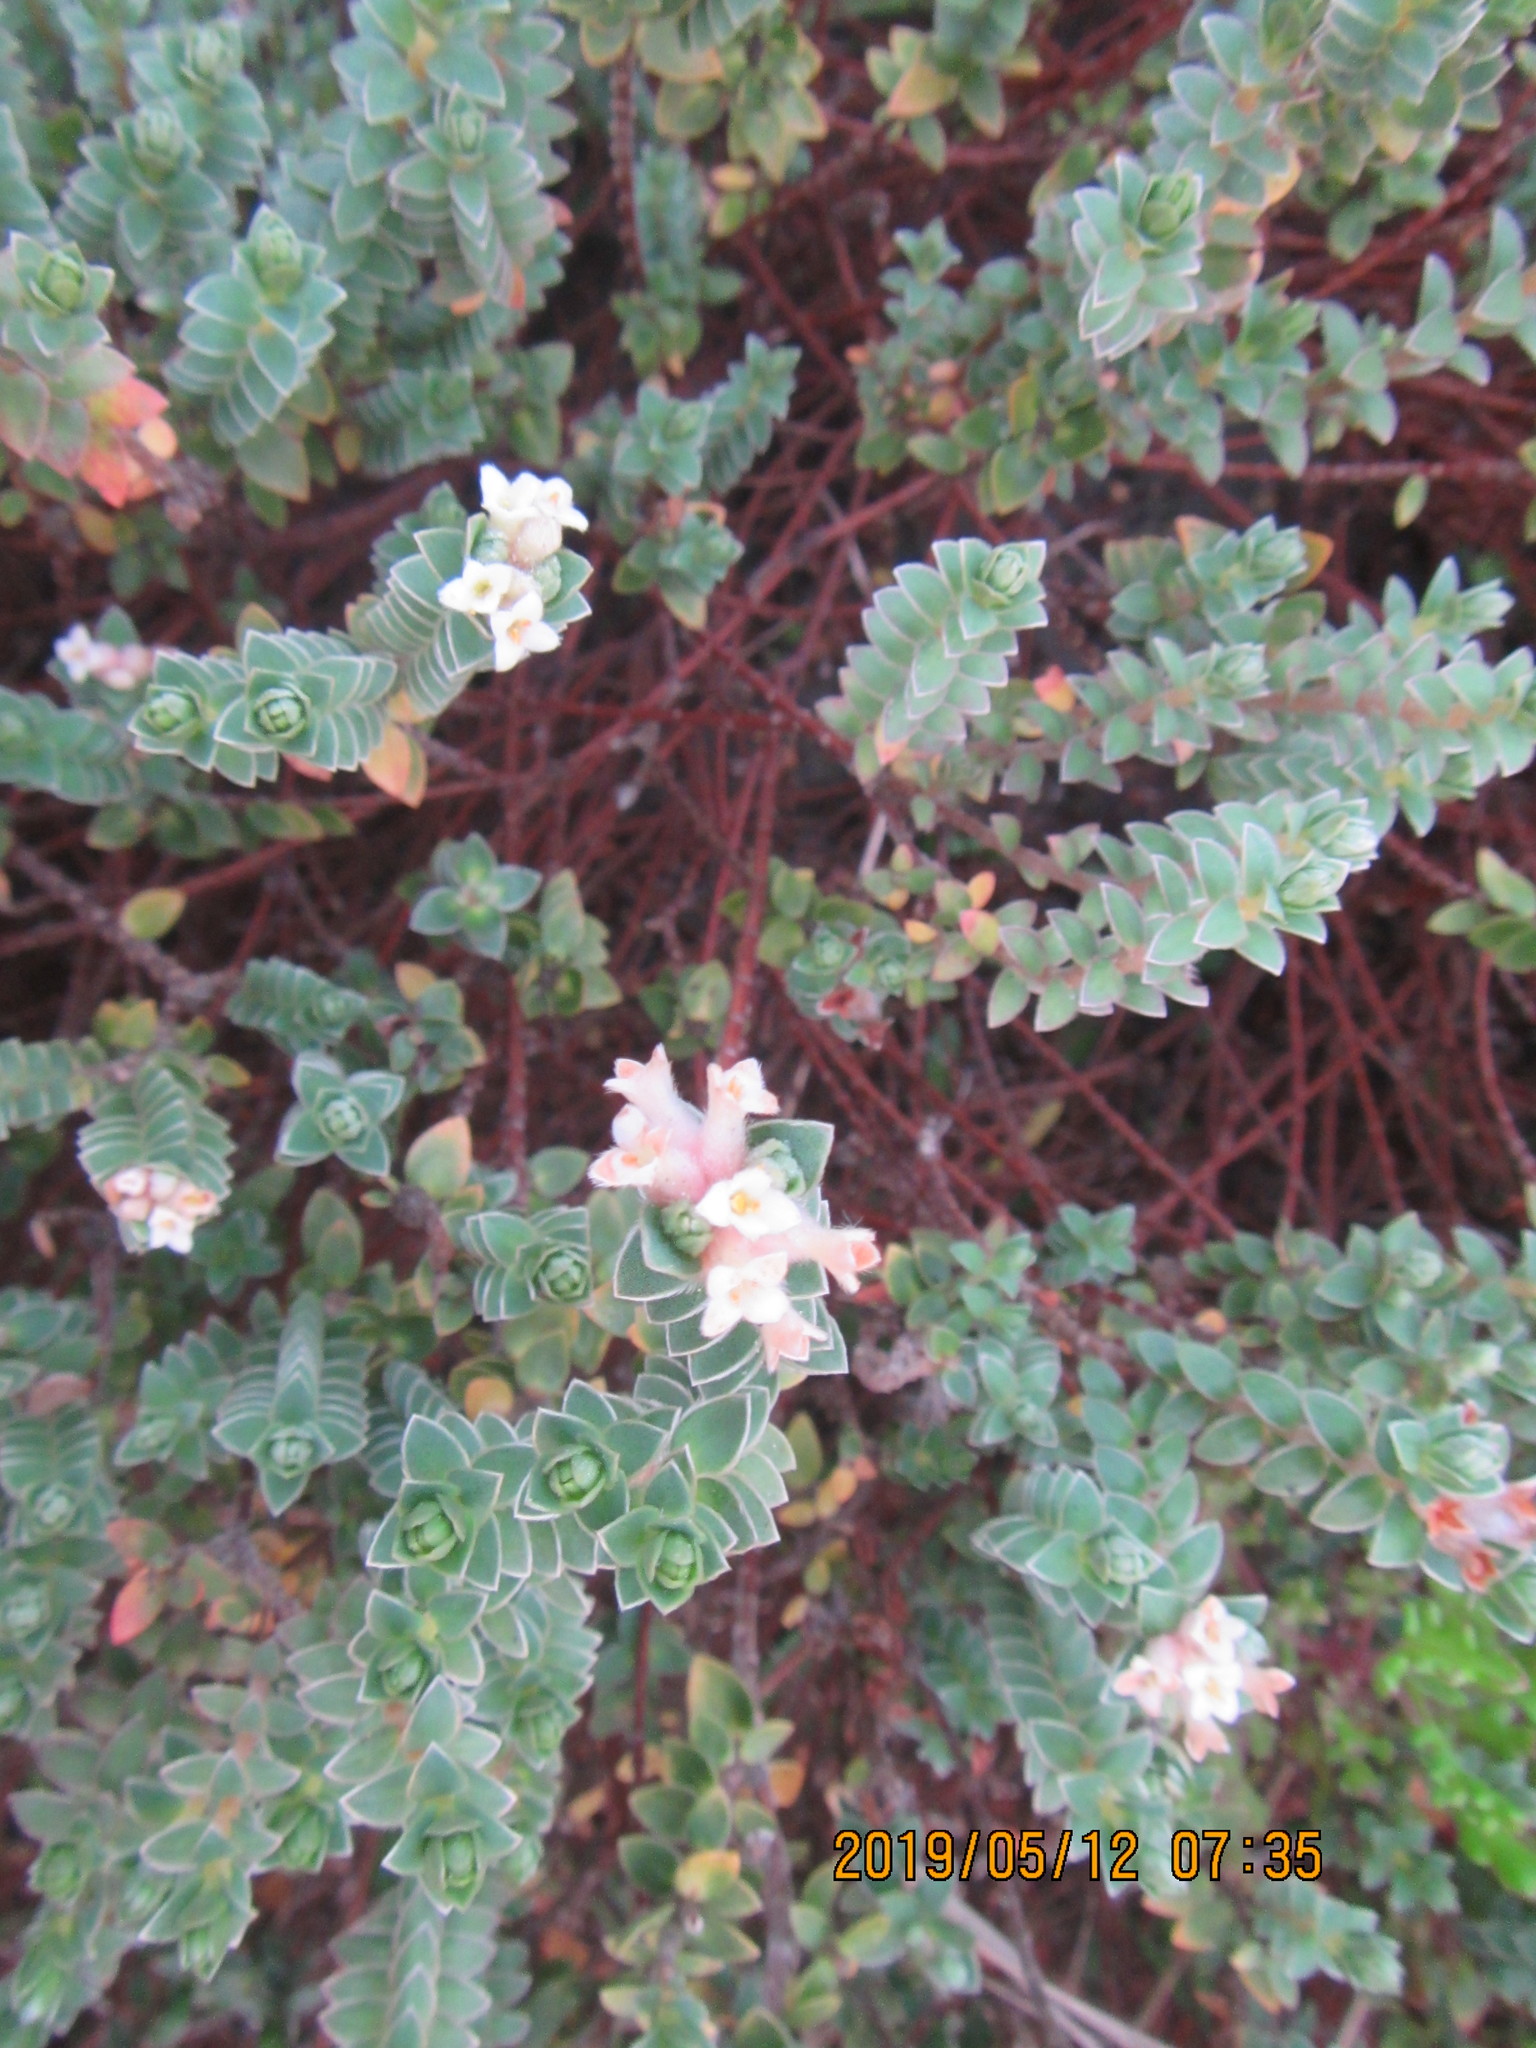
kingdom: Plantae
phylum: Tracheophyta
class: Magnoliopsida
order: Malvales
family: Thymelaeaceae
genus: Pimelea
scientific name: Pimelea villosa
